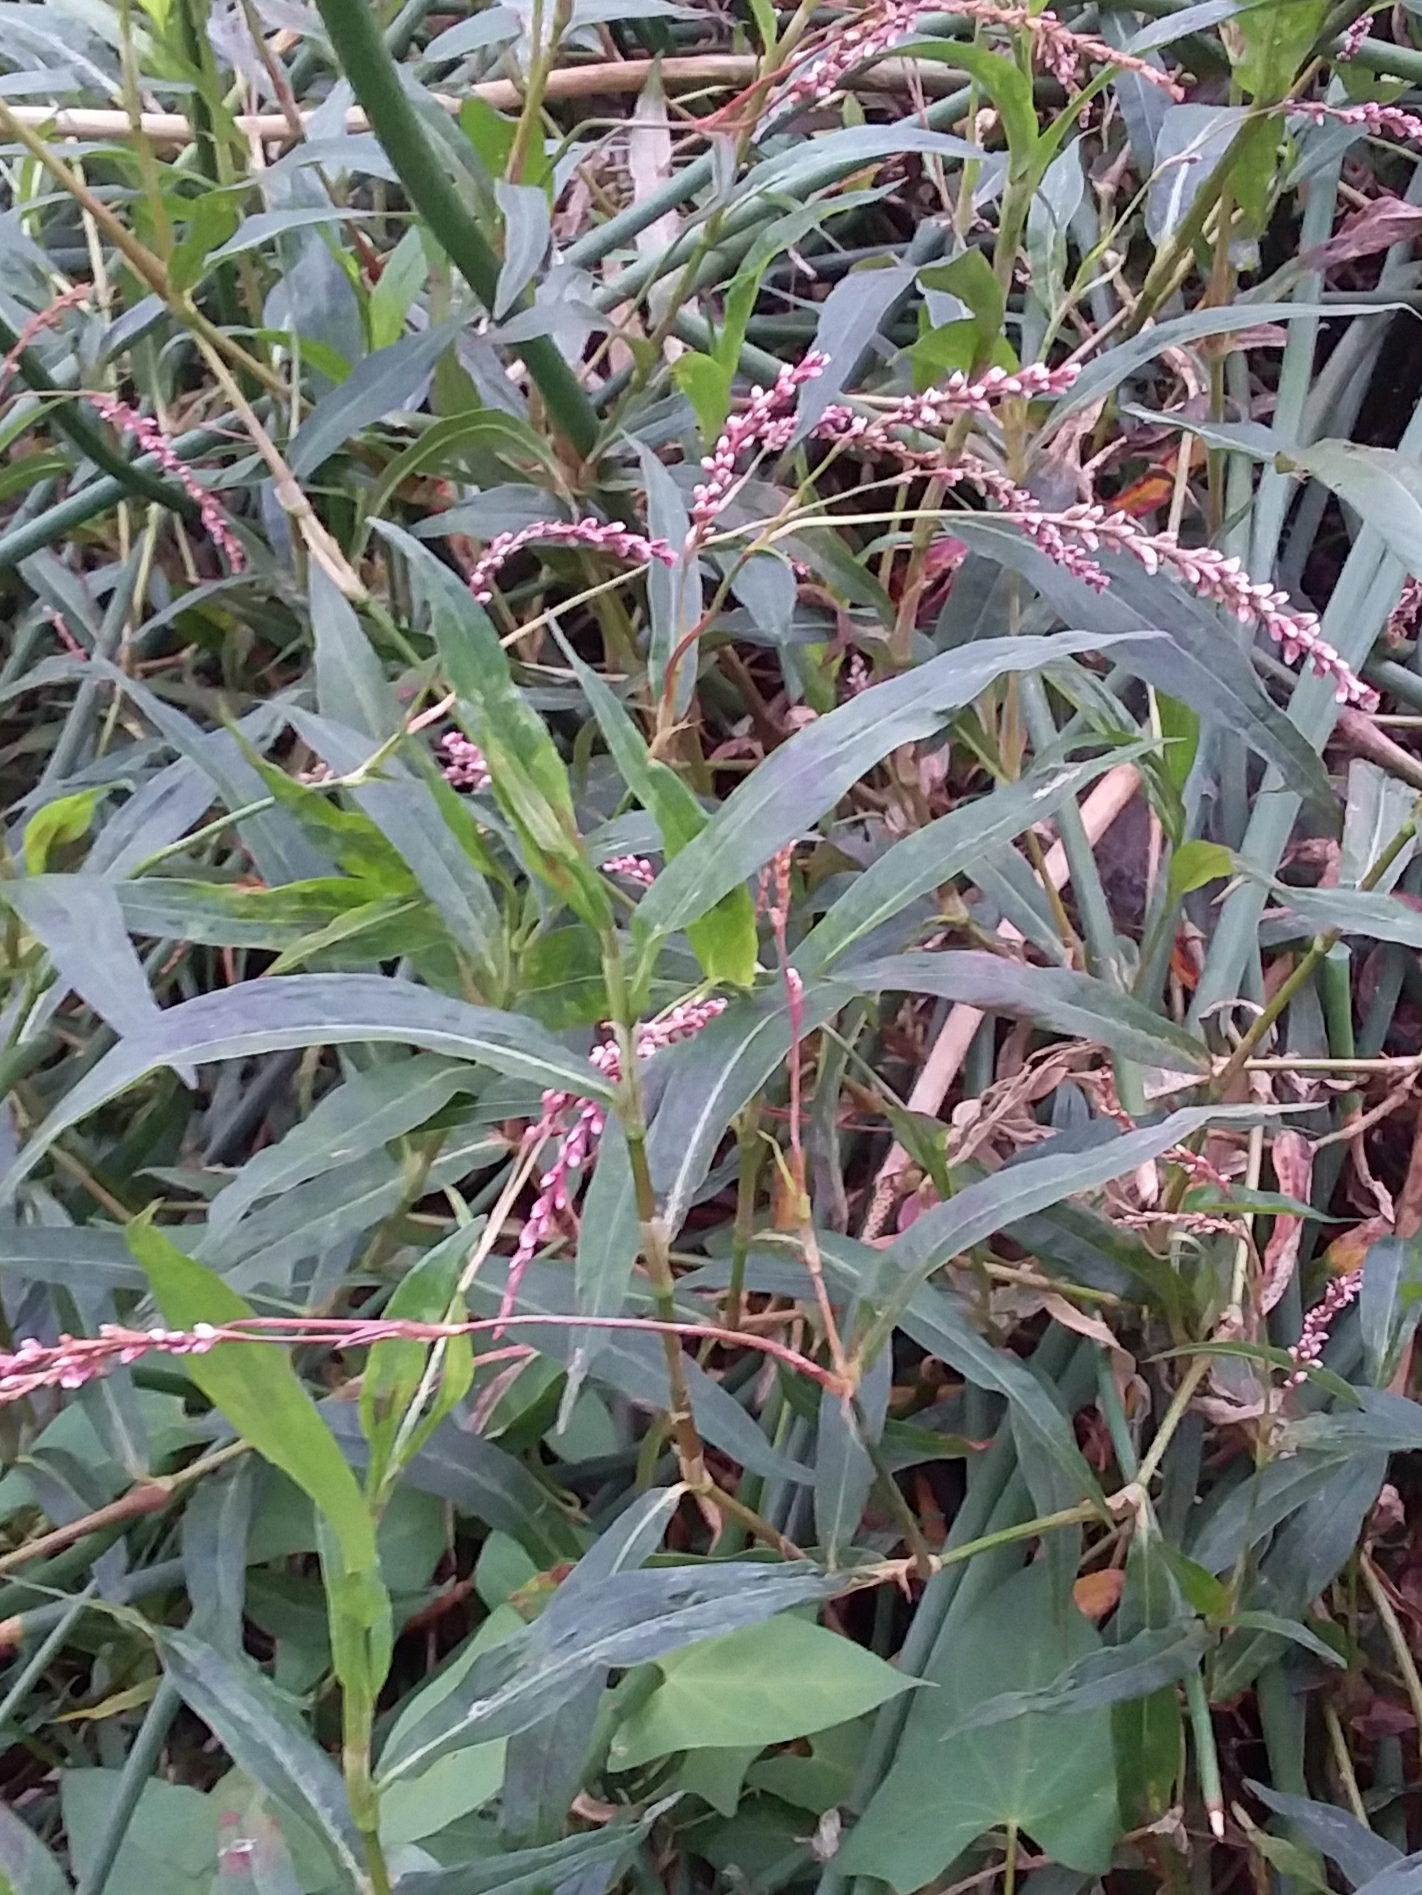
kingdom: Plantae
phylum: Tracheophyta
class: Magnoliopsida
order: Caryophyllales
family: Polygonaceae
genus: Persicaria
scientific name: Persicaria decipiens
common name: Willow-weed
